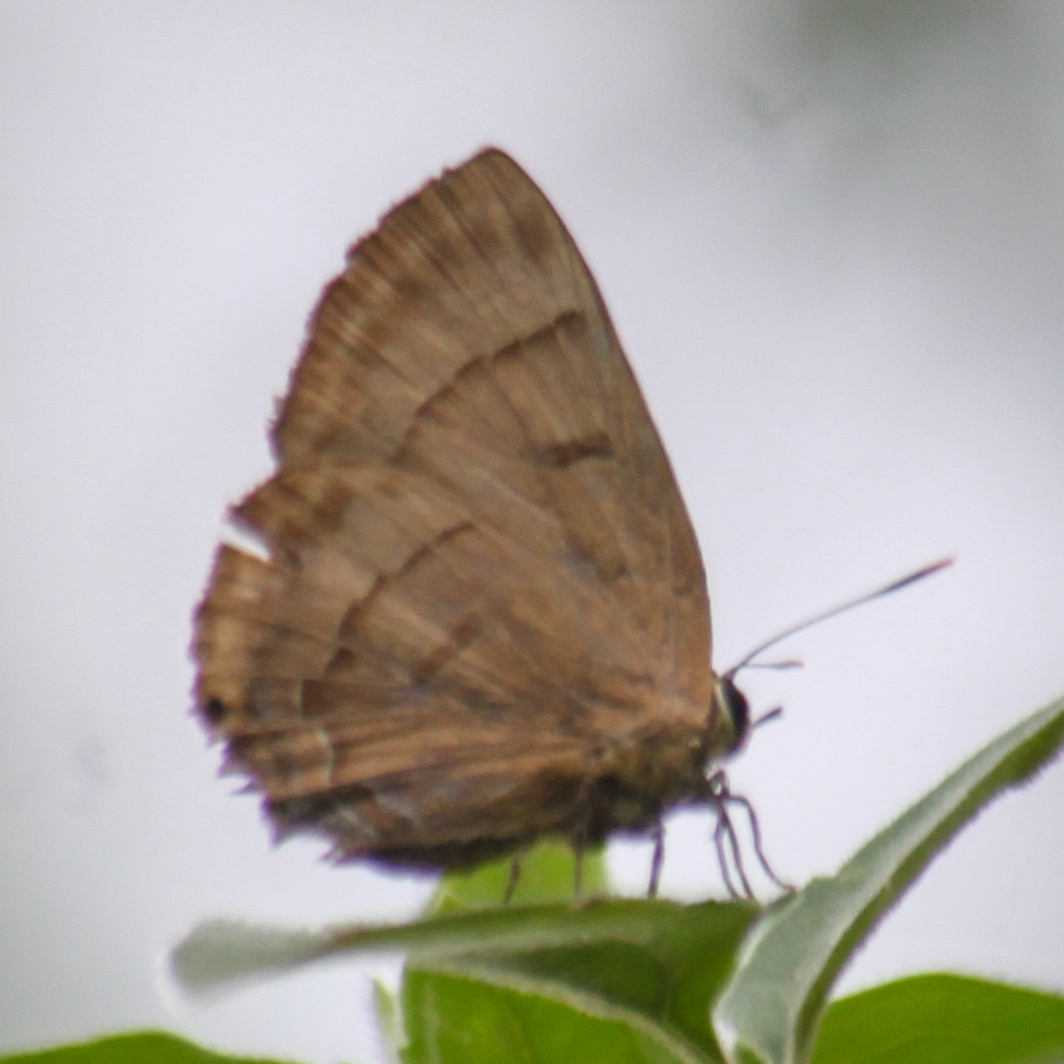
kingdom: Animalia
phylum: Arthropoda
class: Insecta
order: Lepidoptera
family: Lycaenidae
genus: Rapala
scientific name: Rapala pheretima
